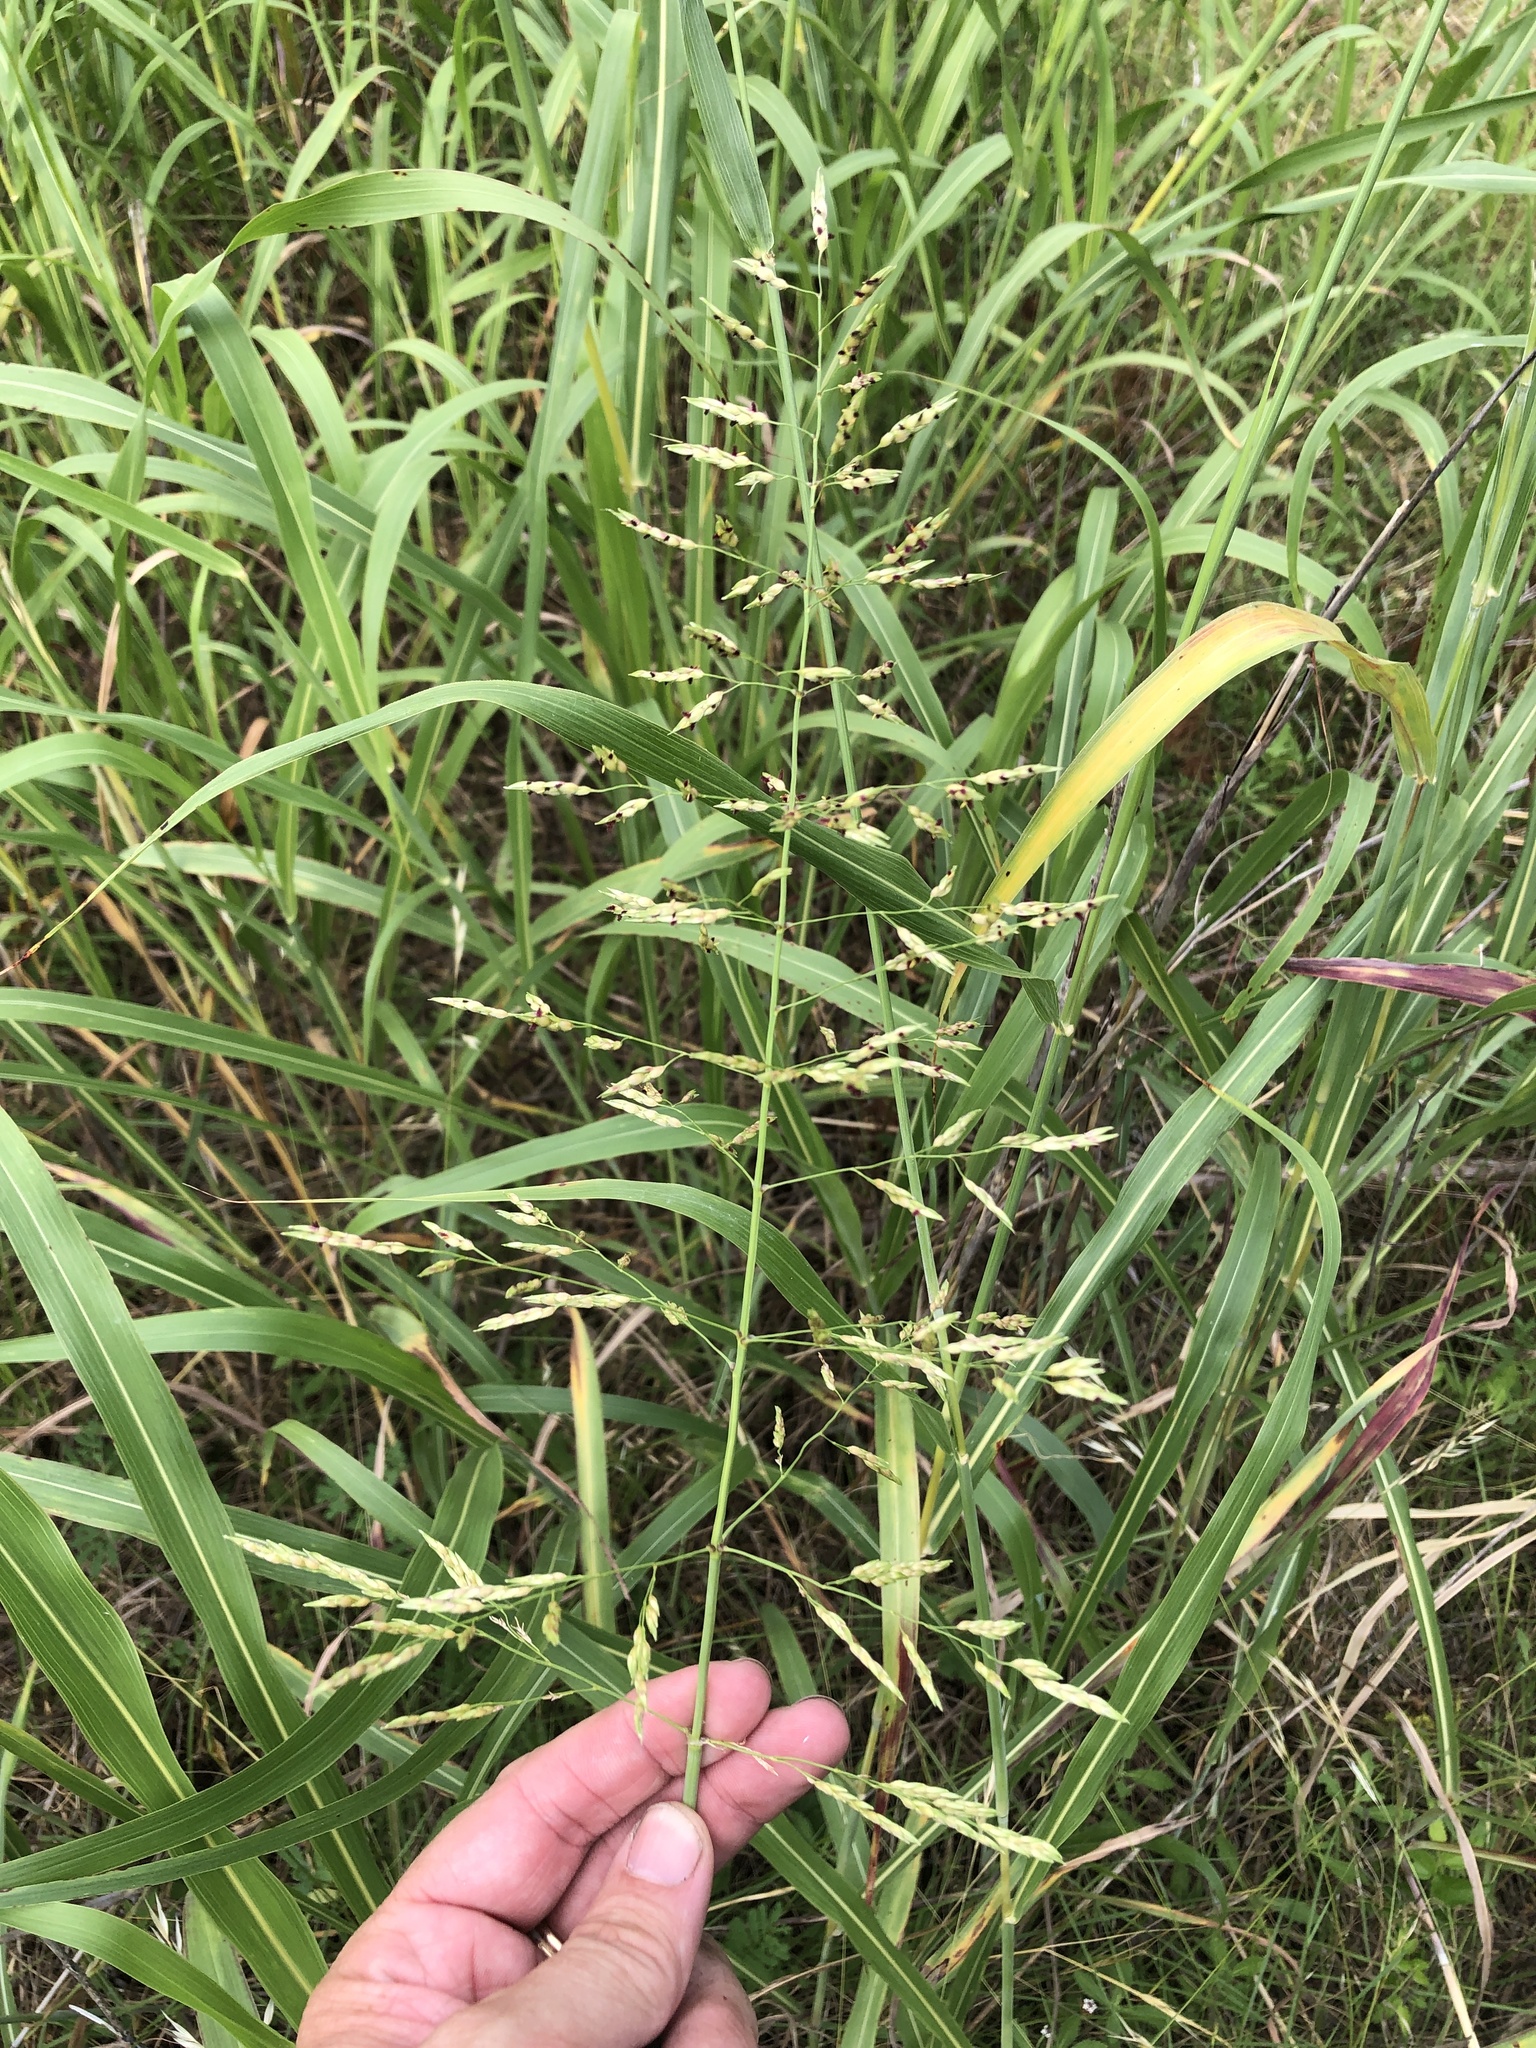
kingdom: Plantae
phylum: Tracheophyta
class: Liliopsida
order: Poales
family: Poaceae
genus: Sorghum
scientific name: Sorghum halepense
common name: Johnson-grass
